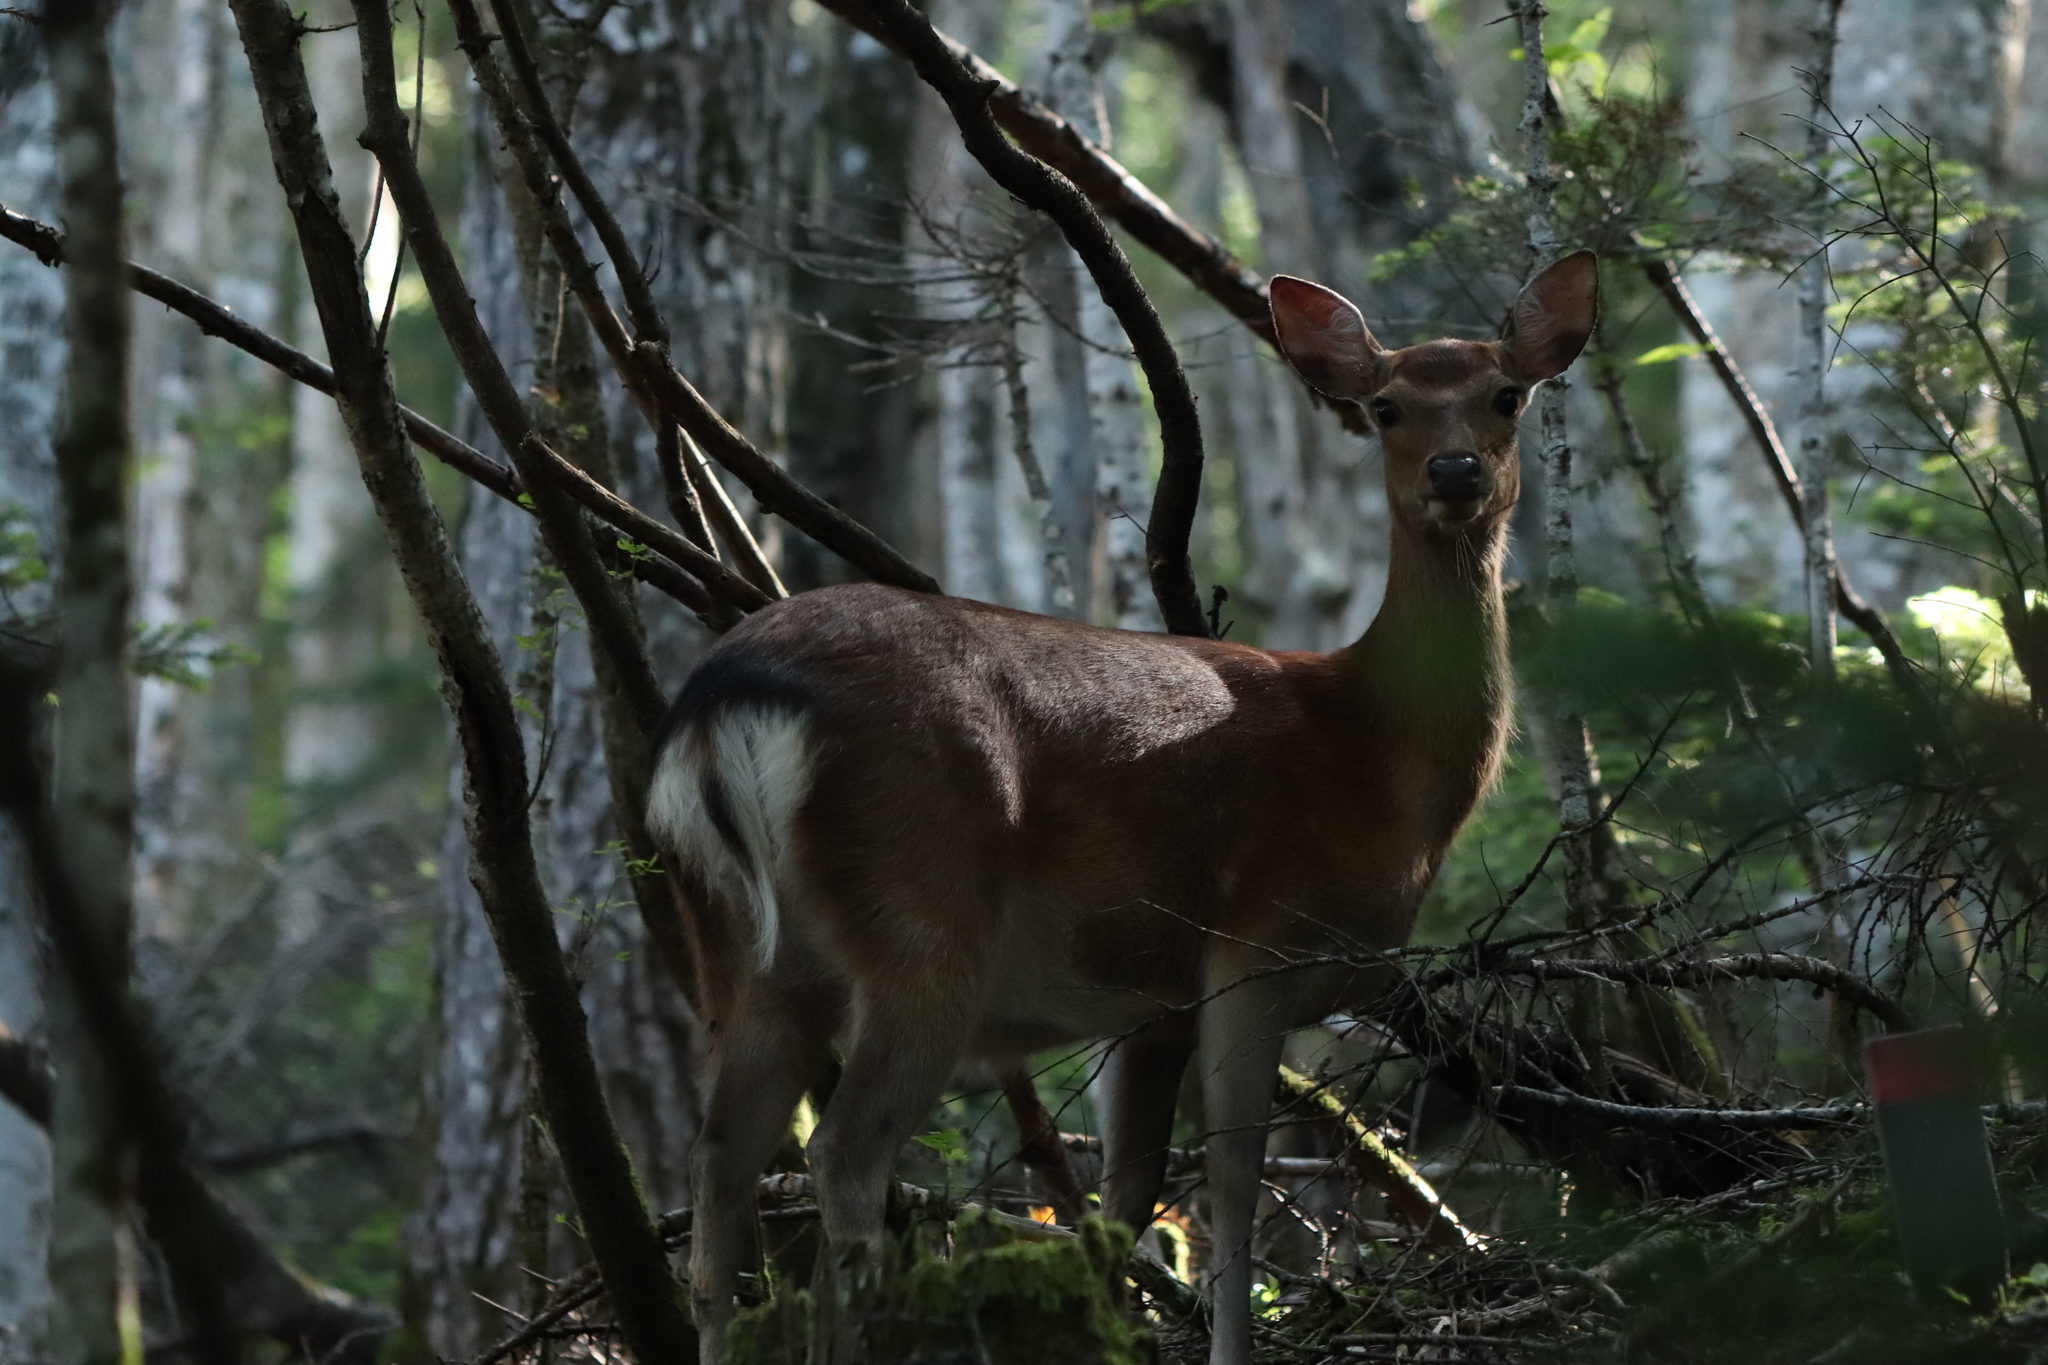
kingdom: Animalia
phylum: Chordata
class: Mammalia
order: Artiodactyla
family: Cervidae
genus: Cervus
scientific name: Cervus nippon
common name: Sika deer
